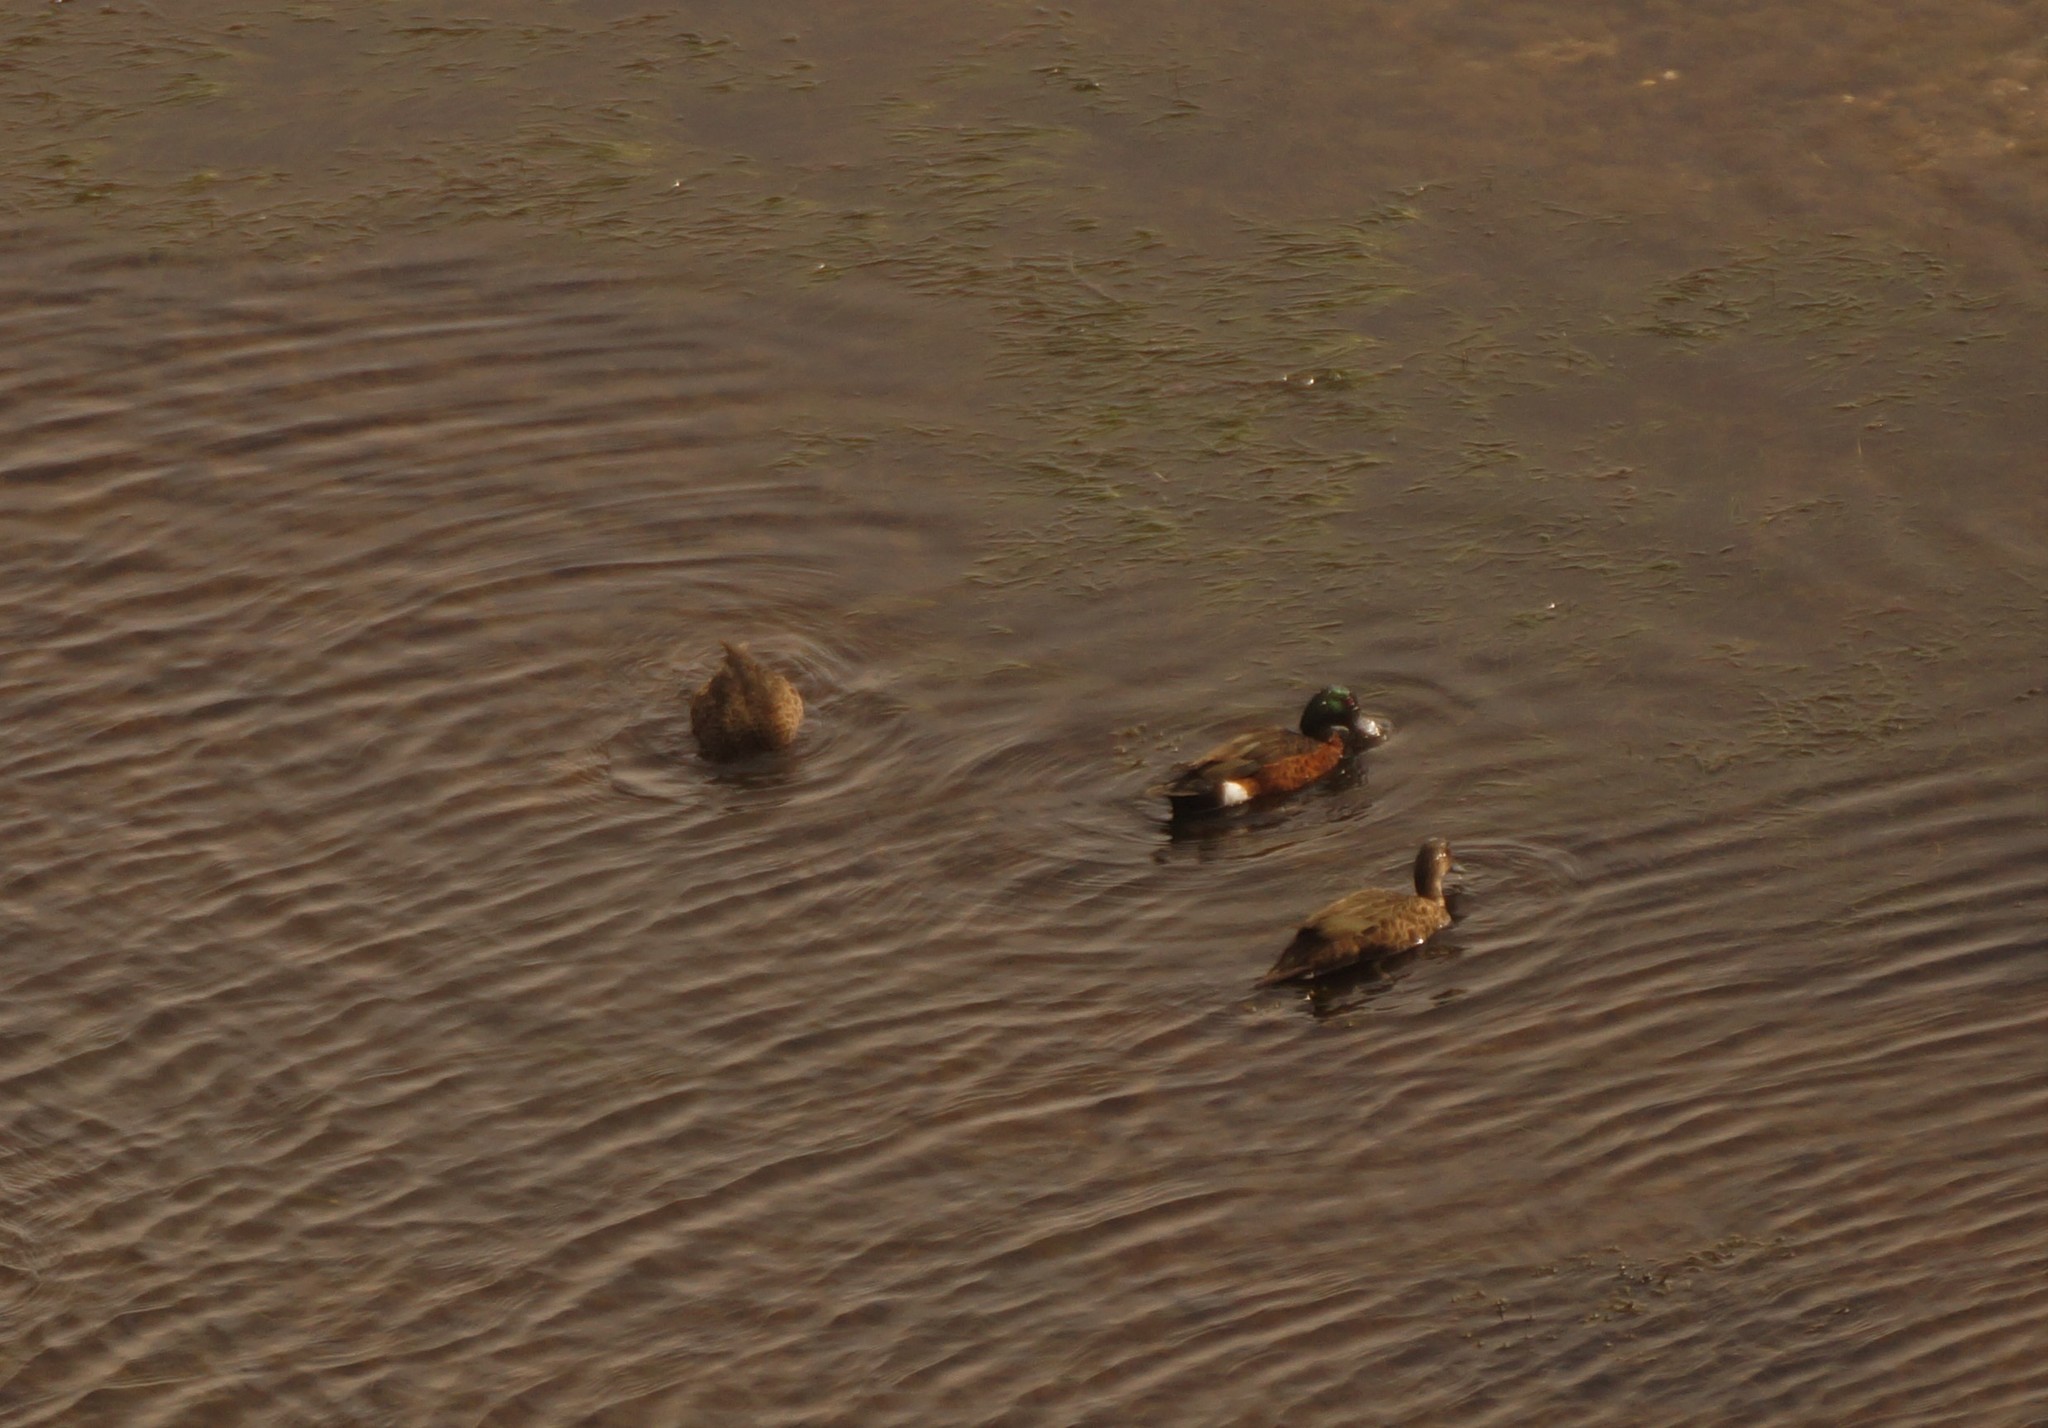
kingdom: Animalia
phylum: Chordata
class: Aves
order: Anseriformes
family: Anatidae
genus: Anas
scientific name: Anas castanea
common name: Chestnut teal
